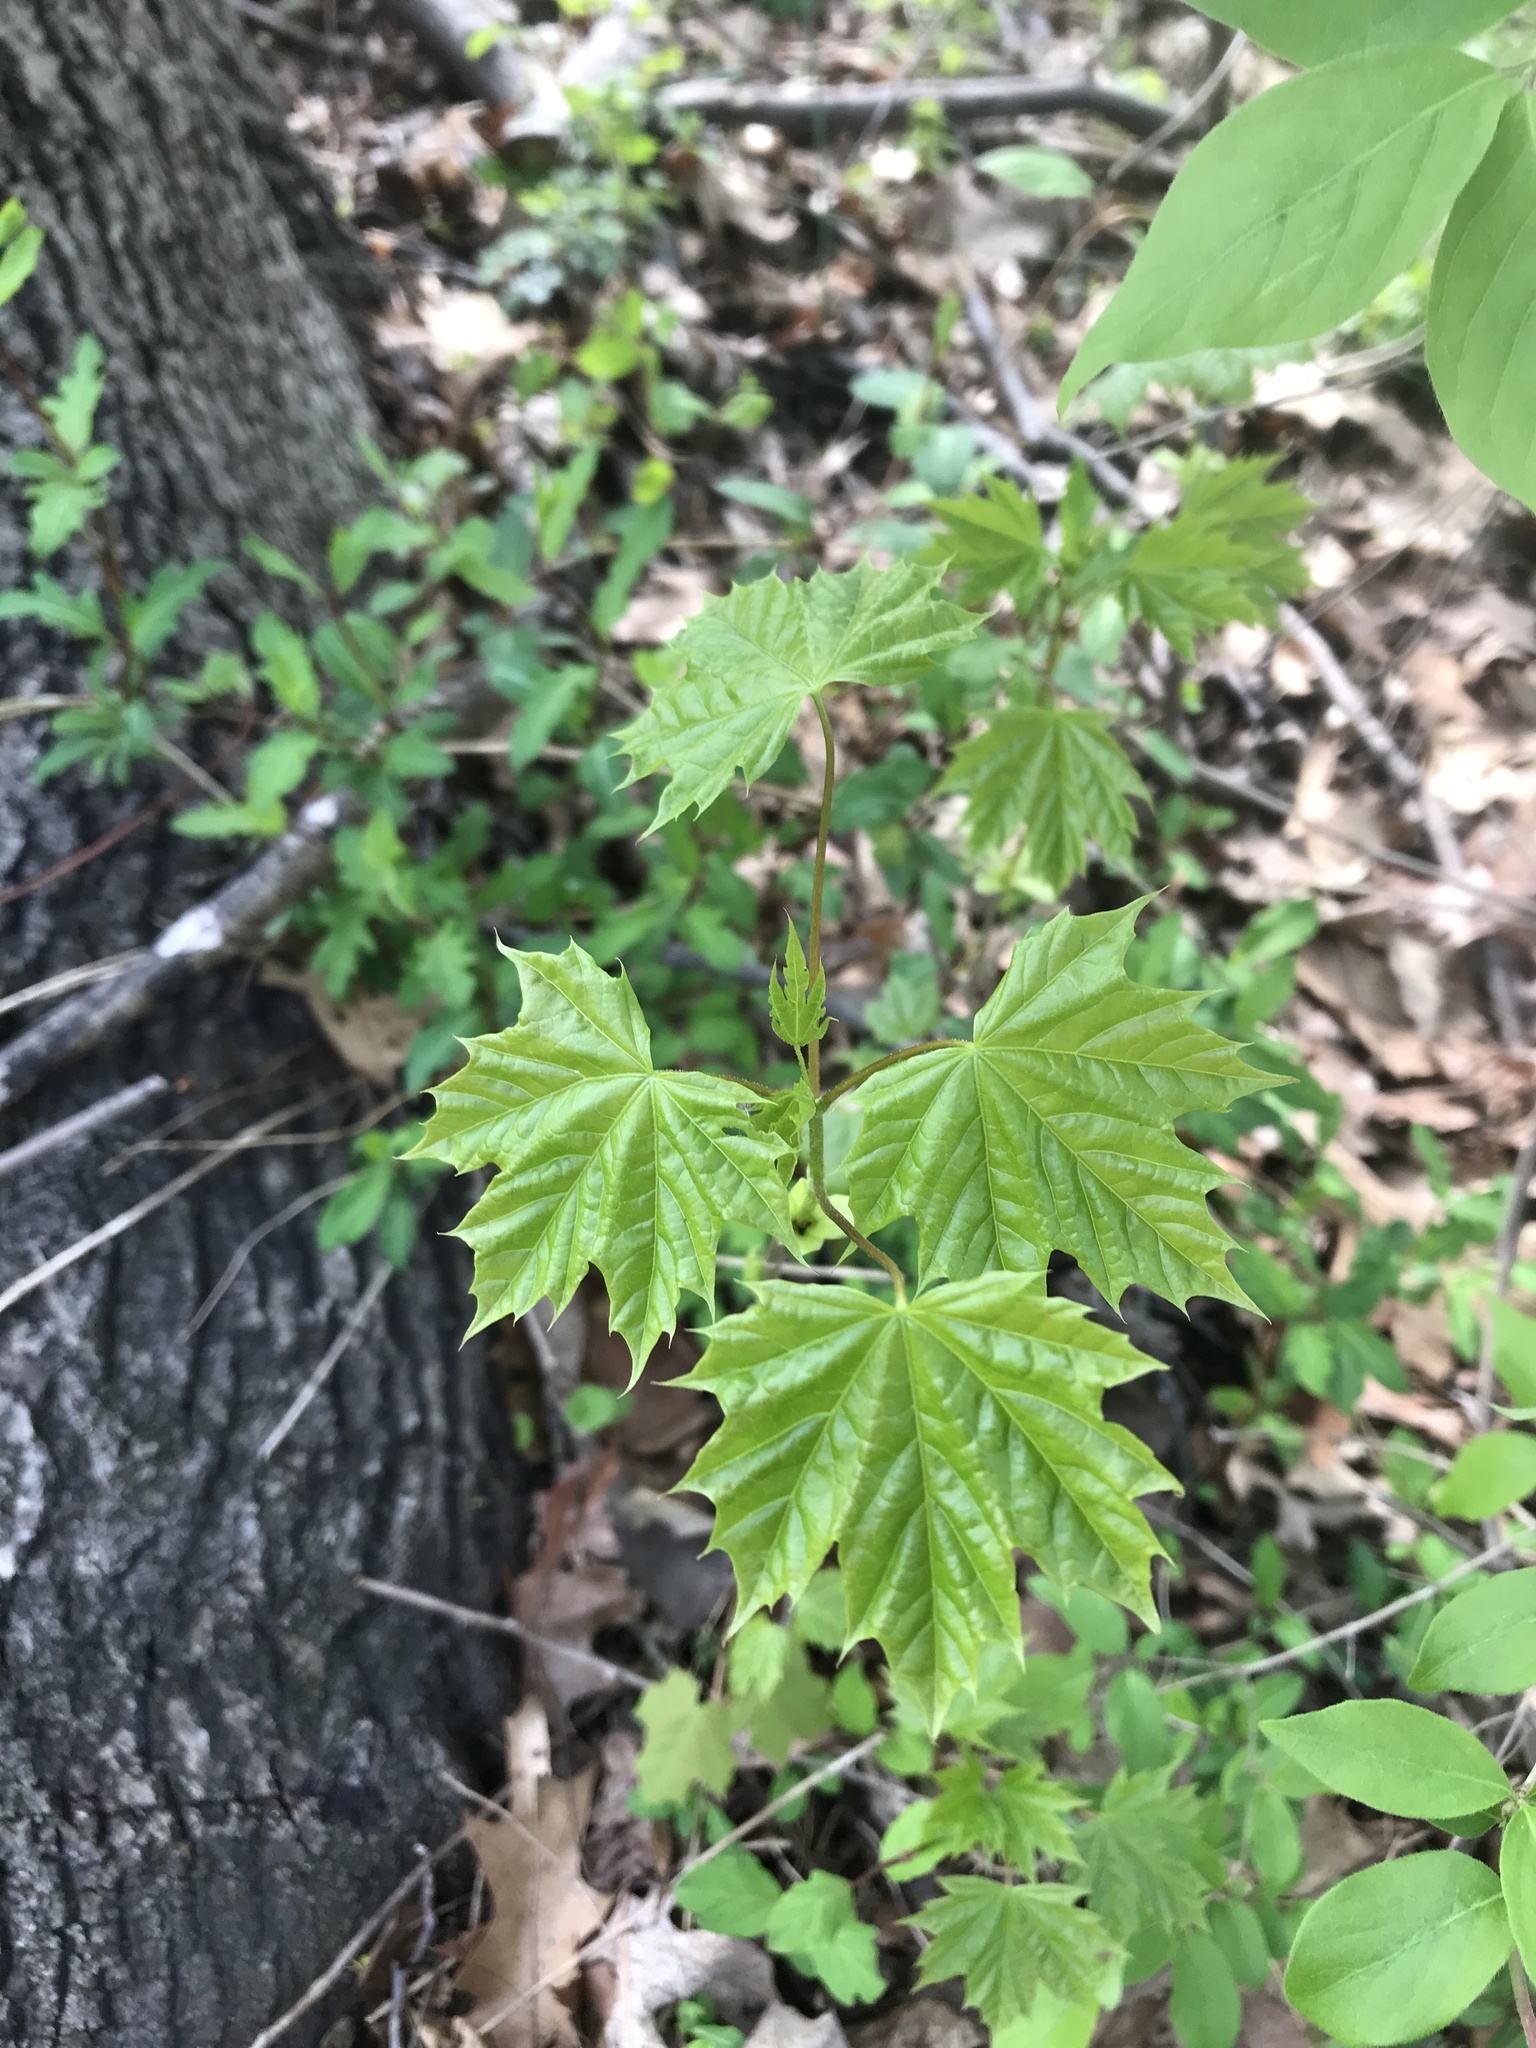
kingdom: Plantae
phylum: Tracheophyta
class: Magnoliopsida
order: Sapindales
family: Sapindaceae
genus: Acer
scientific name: Acer platanoides
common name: Norway maple
